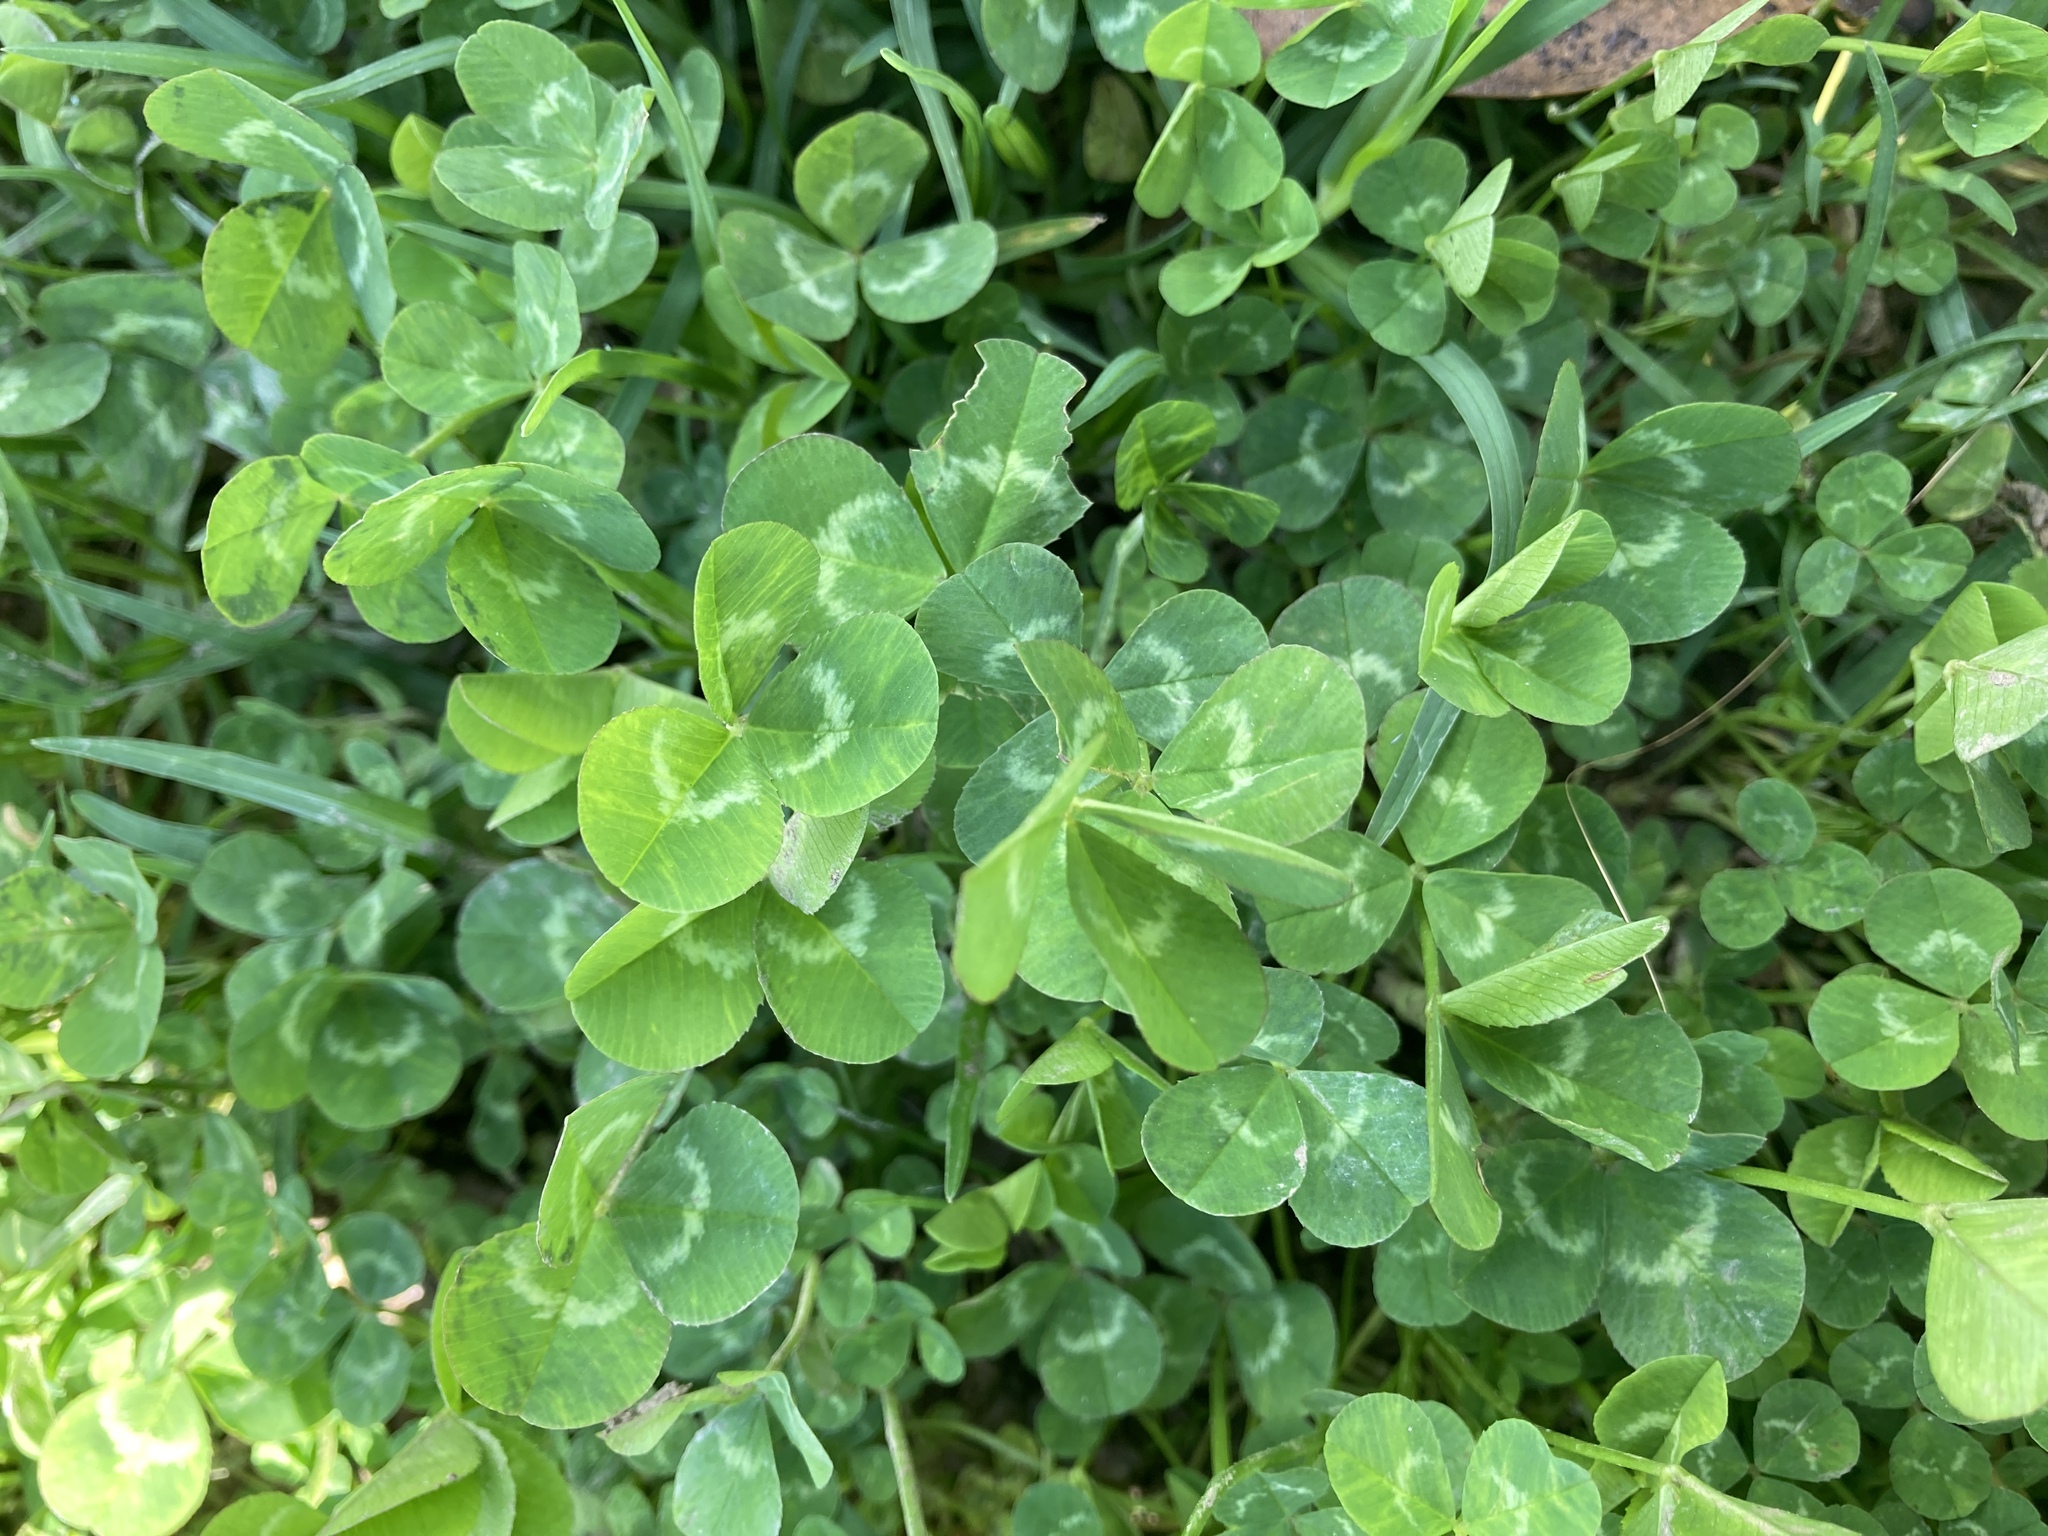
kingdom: Plantae
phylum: Tracheophyta
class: Magnoliopsida
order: Fabales
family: Fabaceae
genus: Trifolium
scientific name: Trifolium repens
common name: White clover
